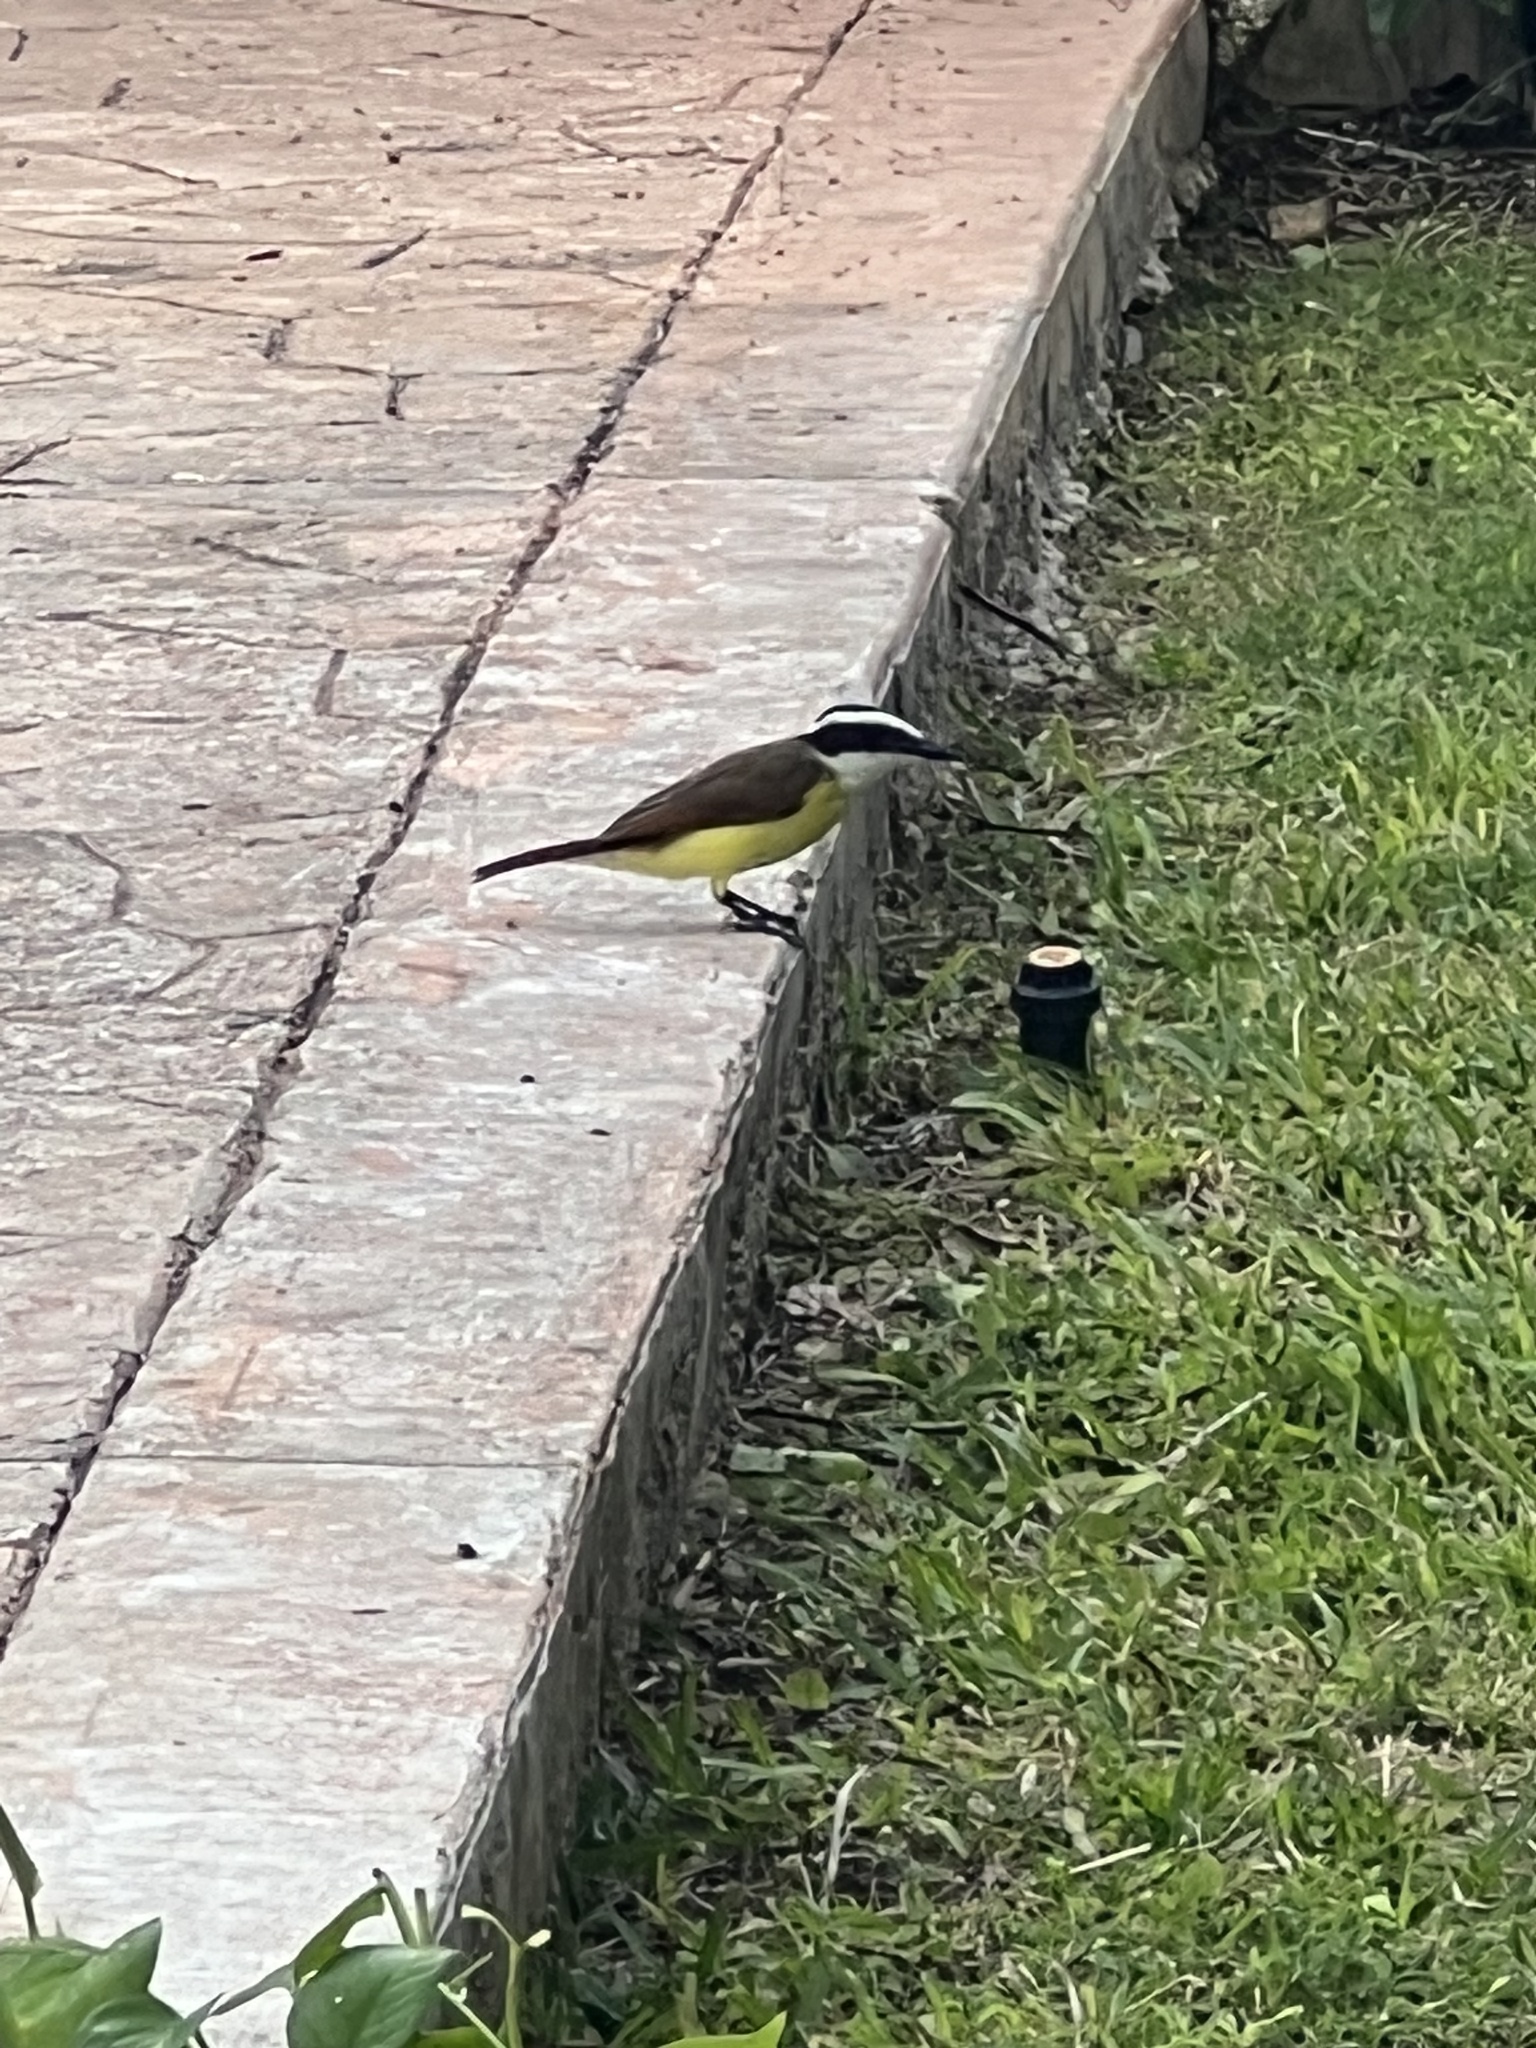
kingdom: Animalia
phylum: Chordata
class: Aves
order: Passeriformes
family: Tyrannidae
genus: Pitangus
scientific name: Pitangus sulphuratus
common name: Great kiskadee
